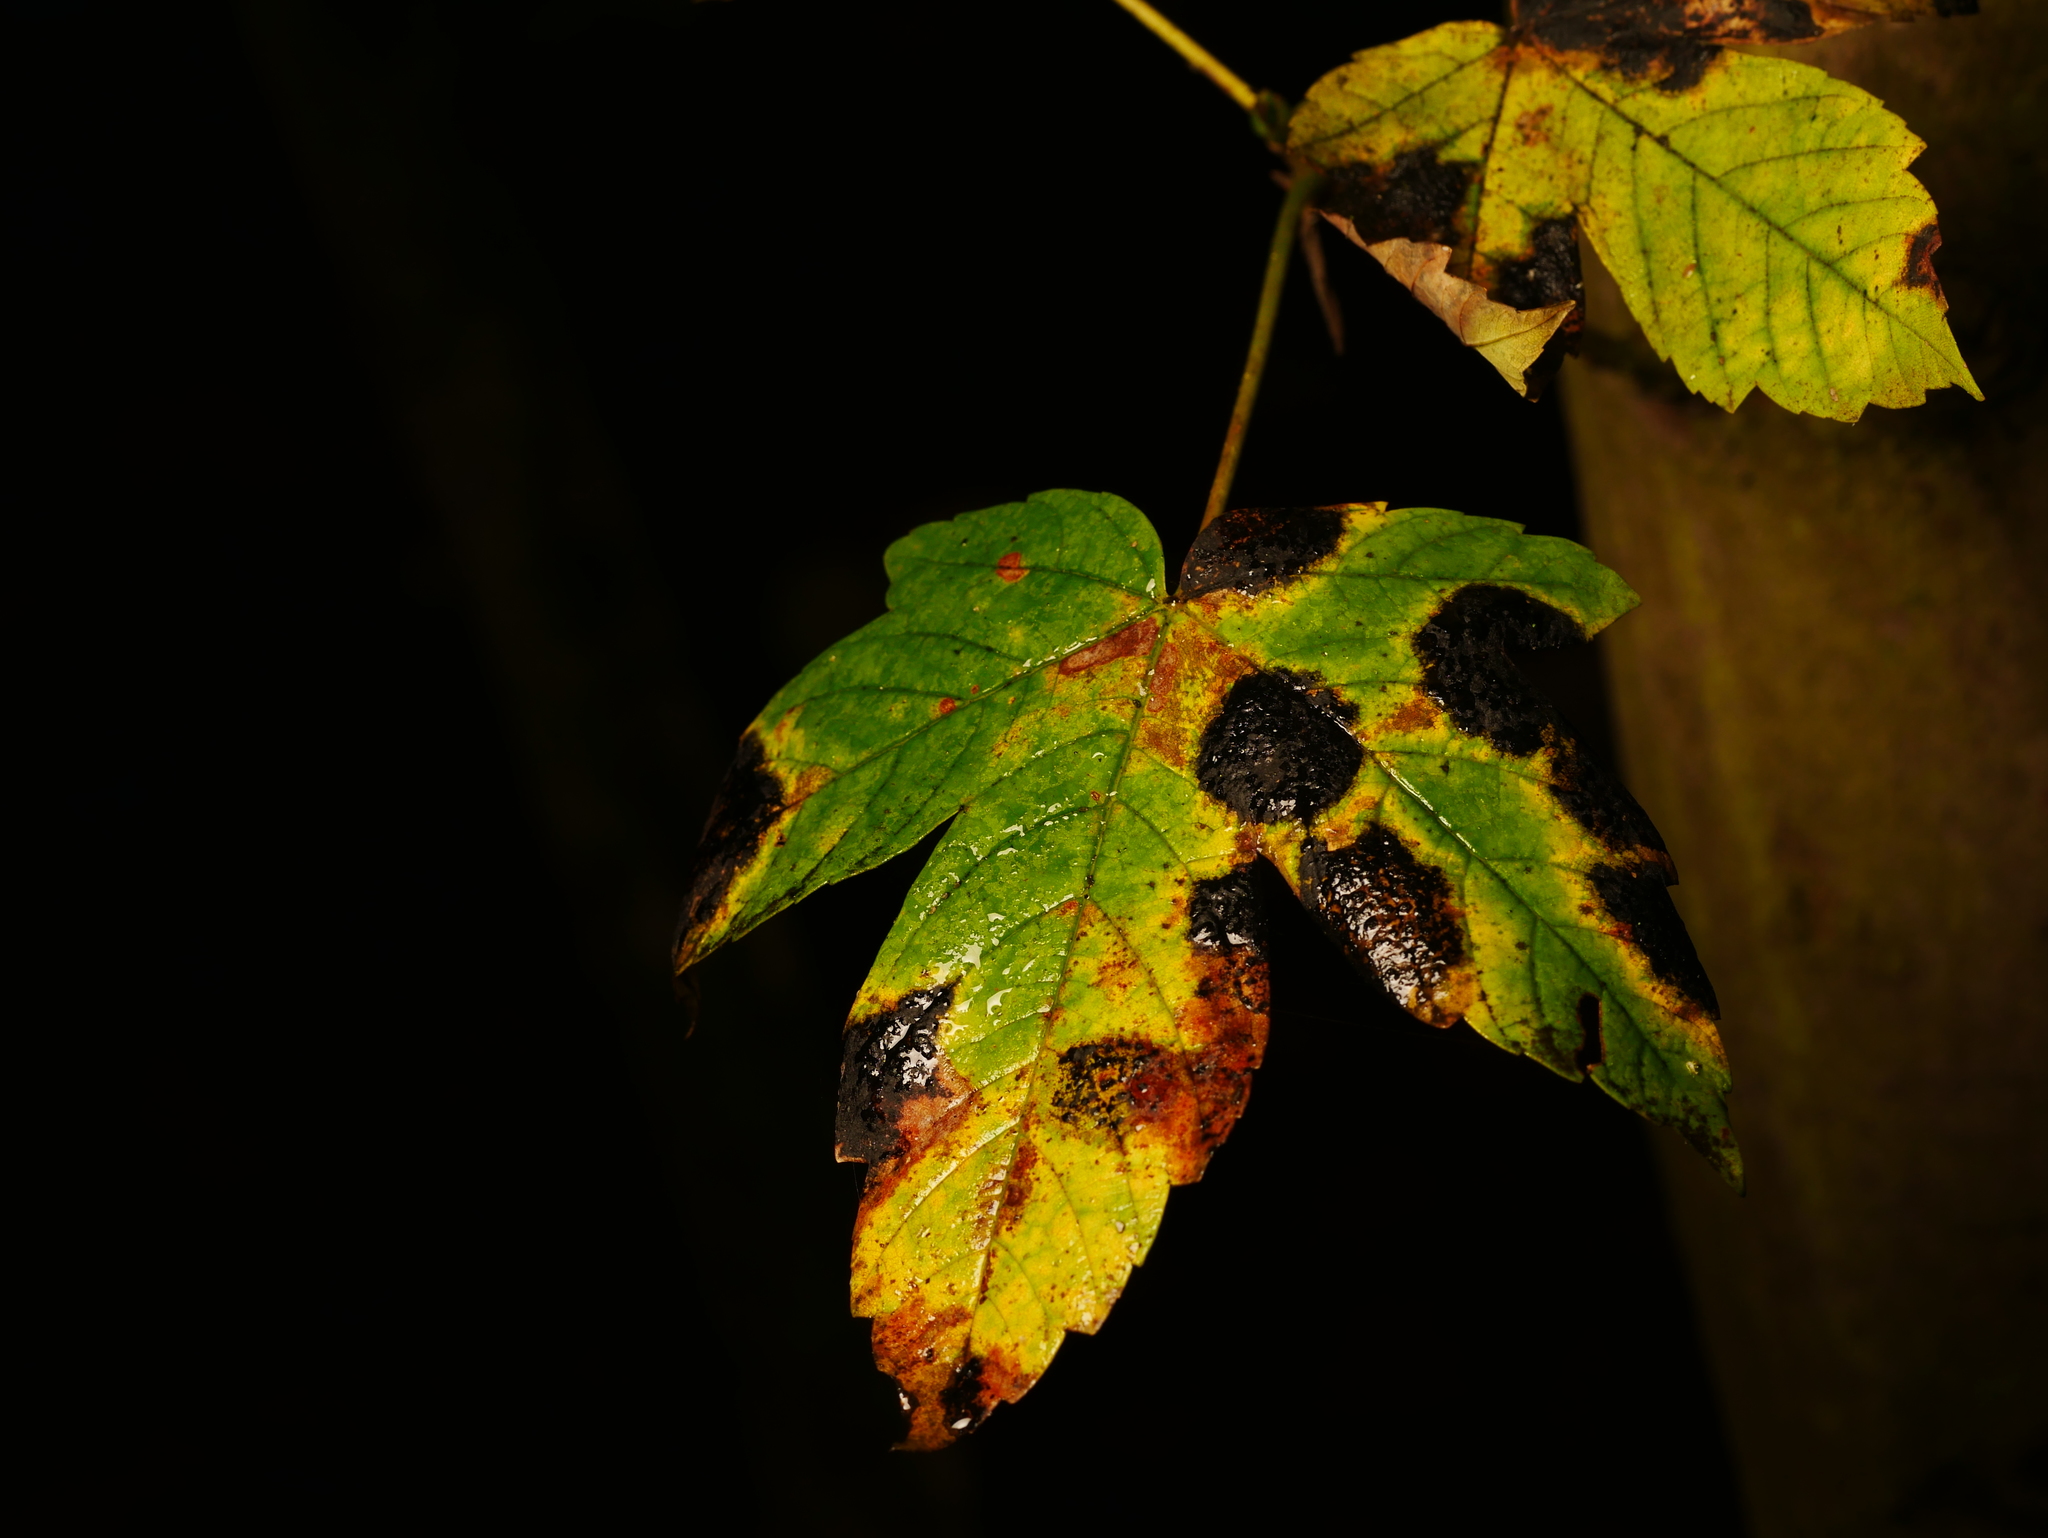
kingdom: Fungi
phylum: Ascomycota
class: Leotiomycetes
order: Rhytismatales
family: Rhytismataceae
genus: Rhytisma
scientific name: Rhytisma acerinum
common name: European tar spot
